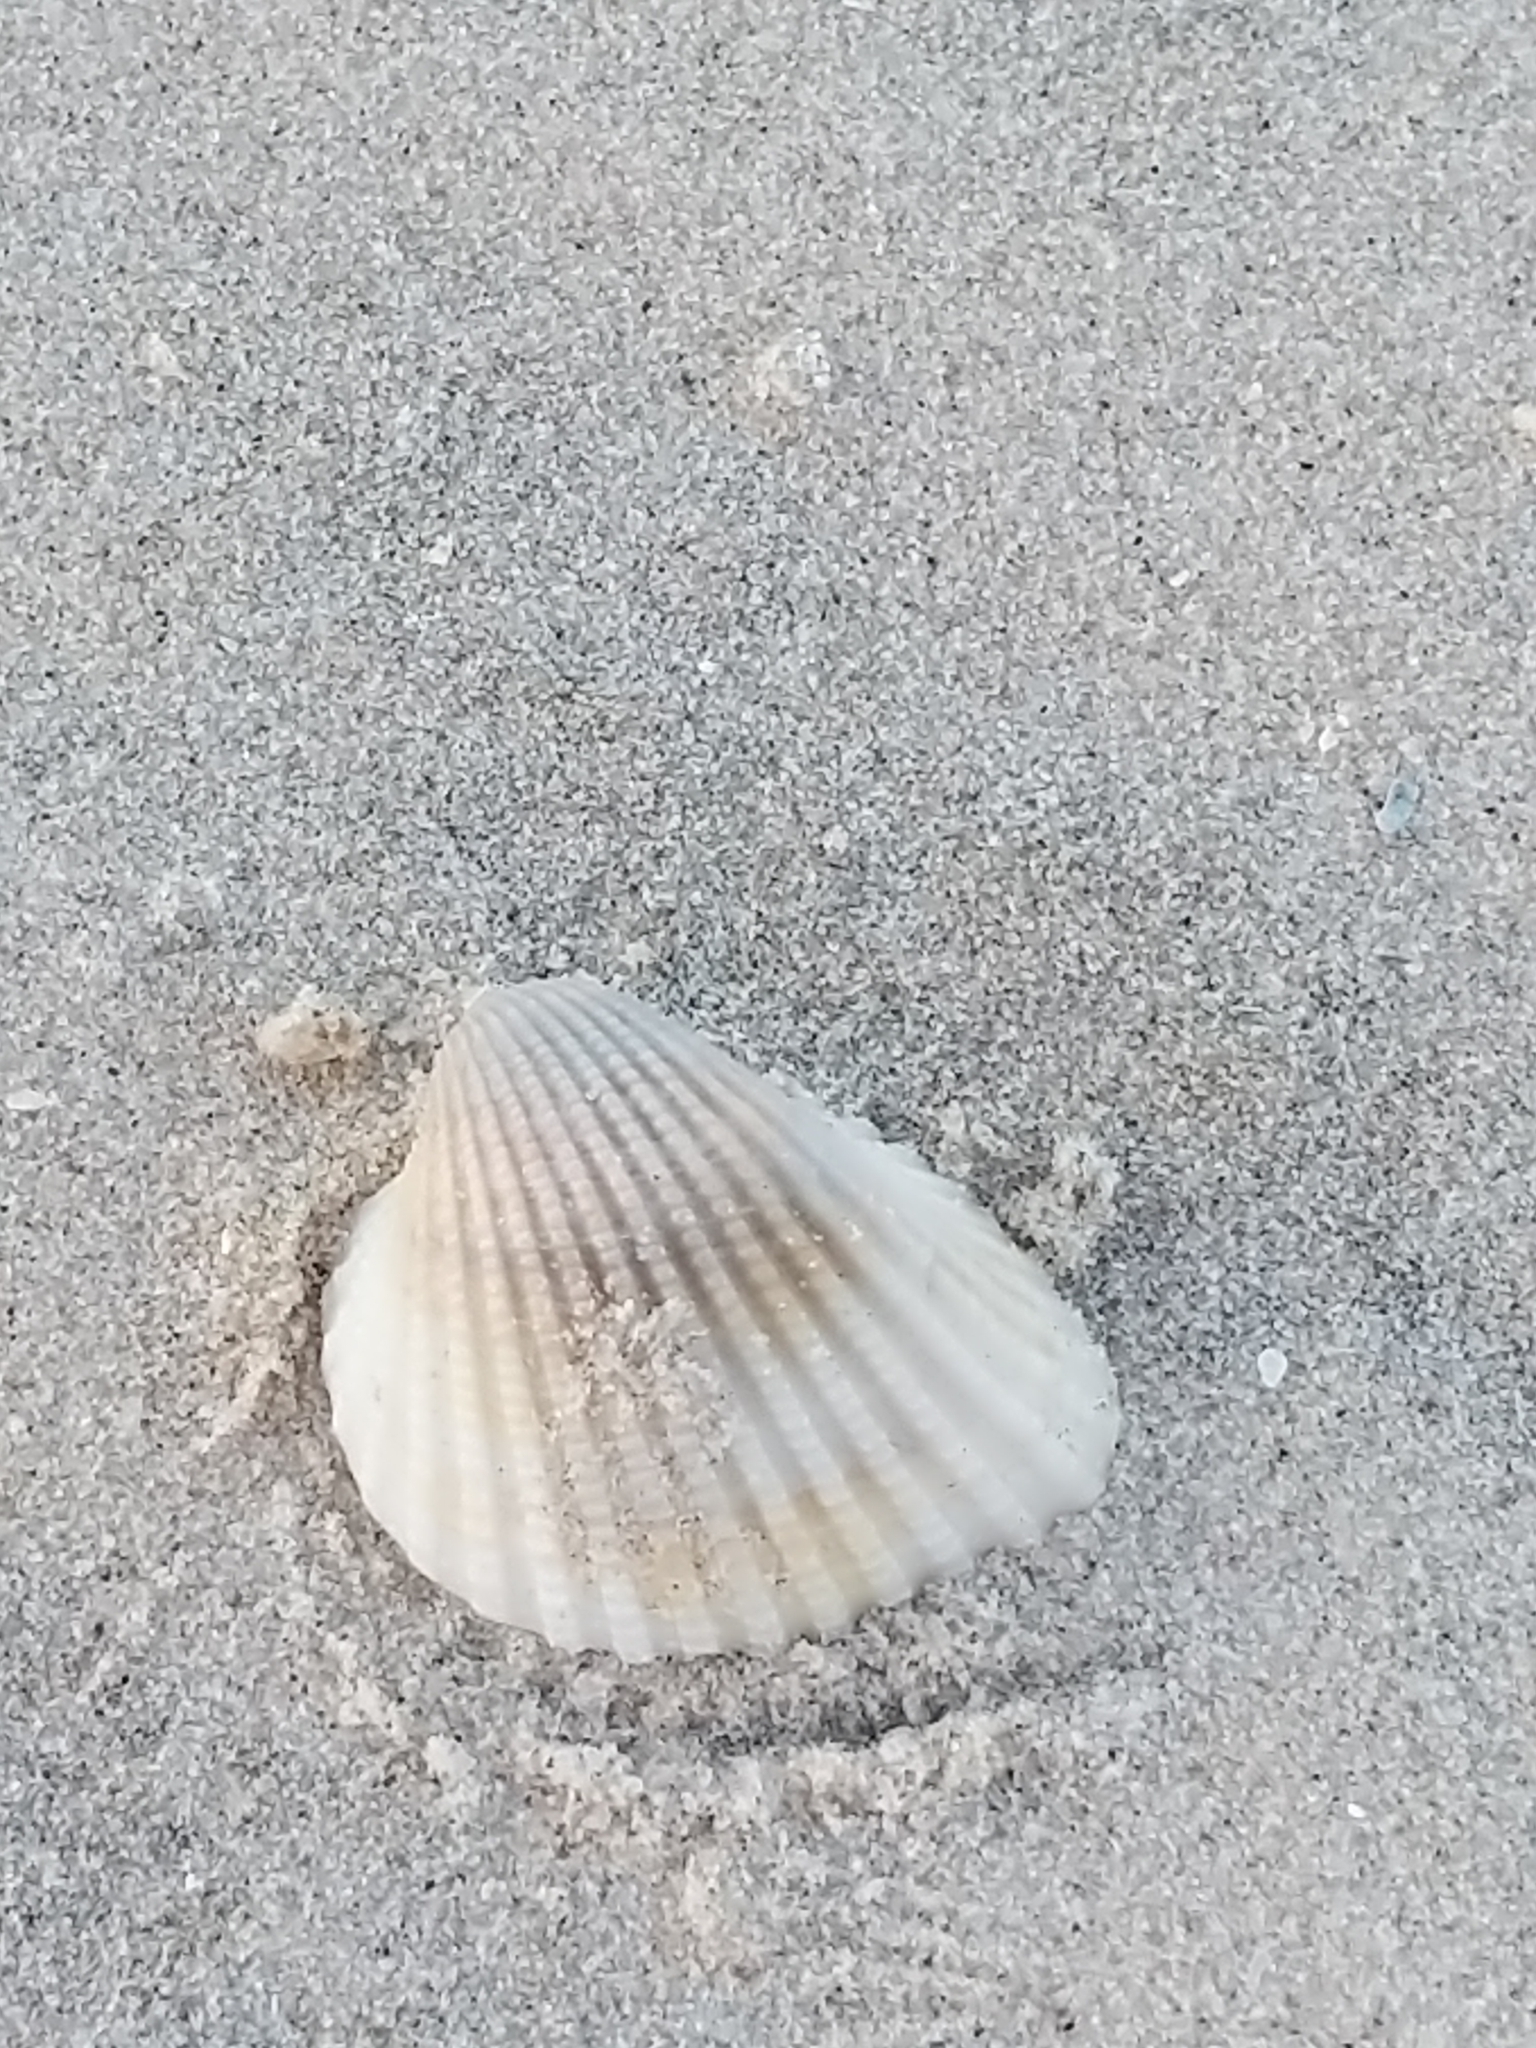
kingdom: Animalia
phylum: Mollusca
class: Bivalvia
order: Arcida
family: Arcidae
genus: Anadara
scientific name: Anadara chemnitzii
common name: Chemnitz's triangular ark
